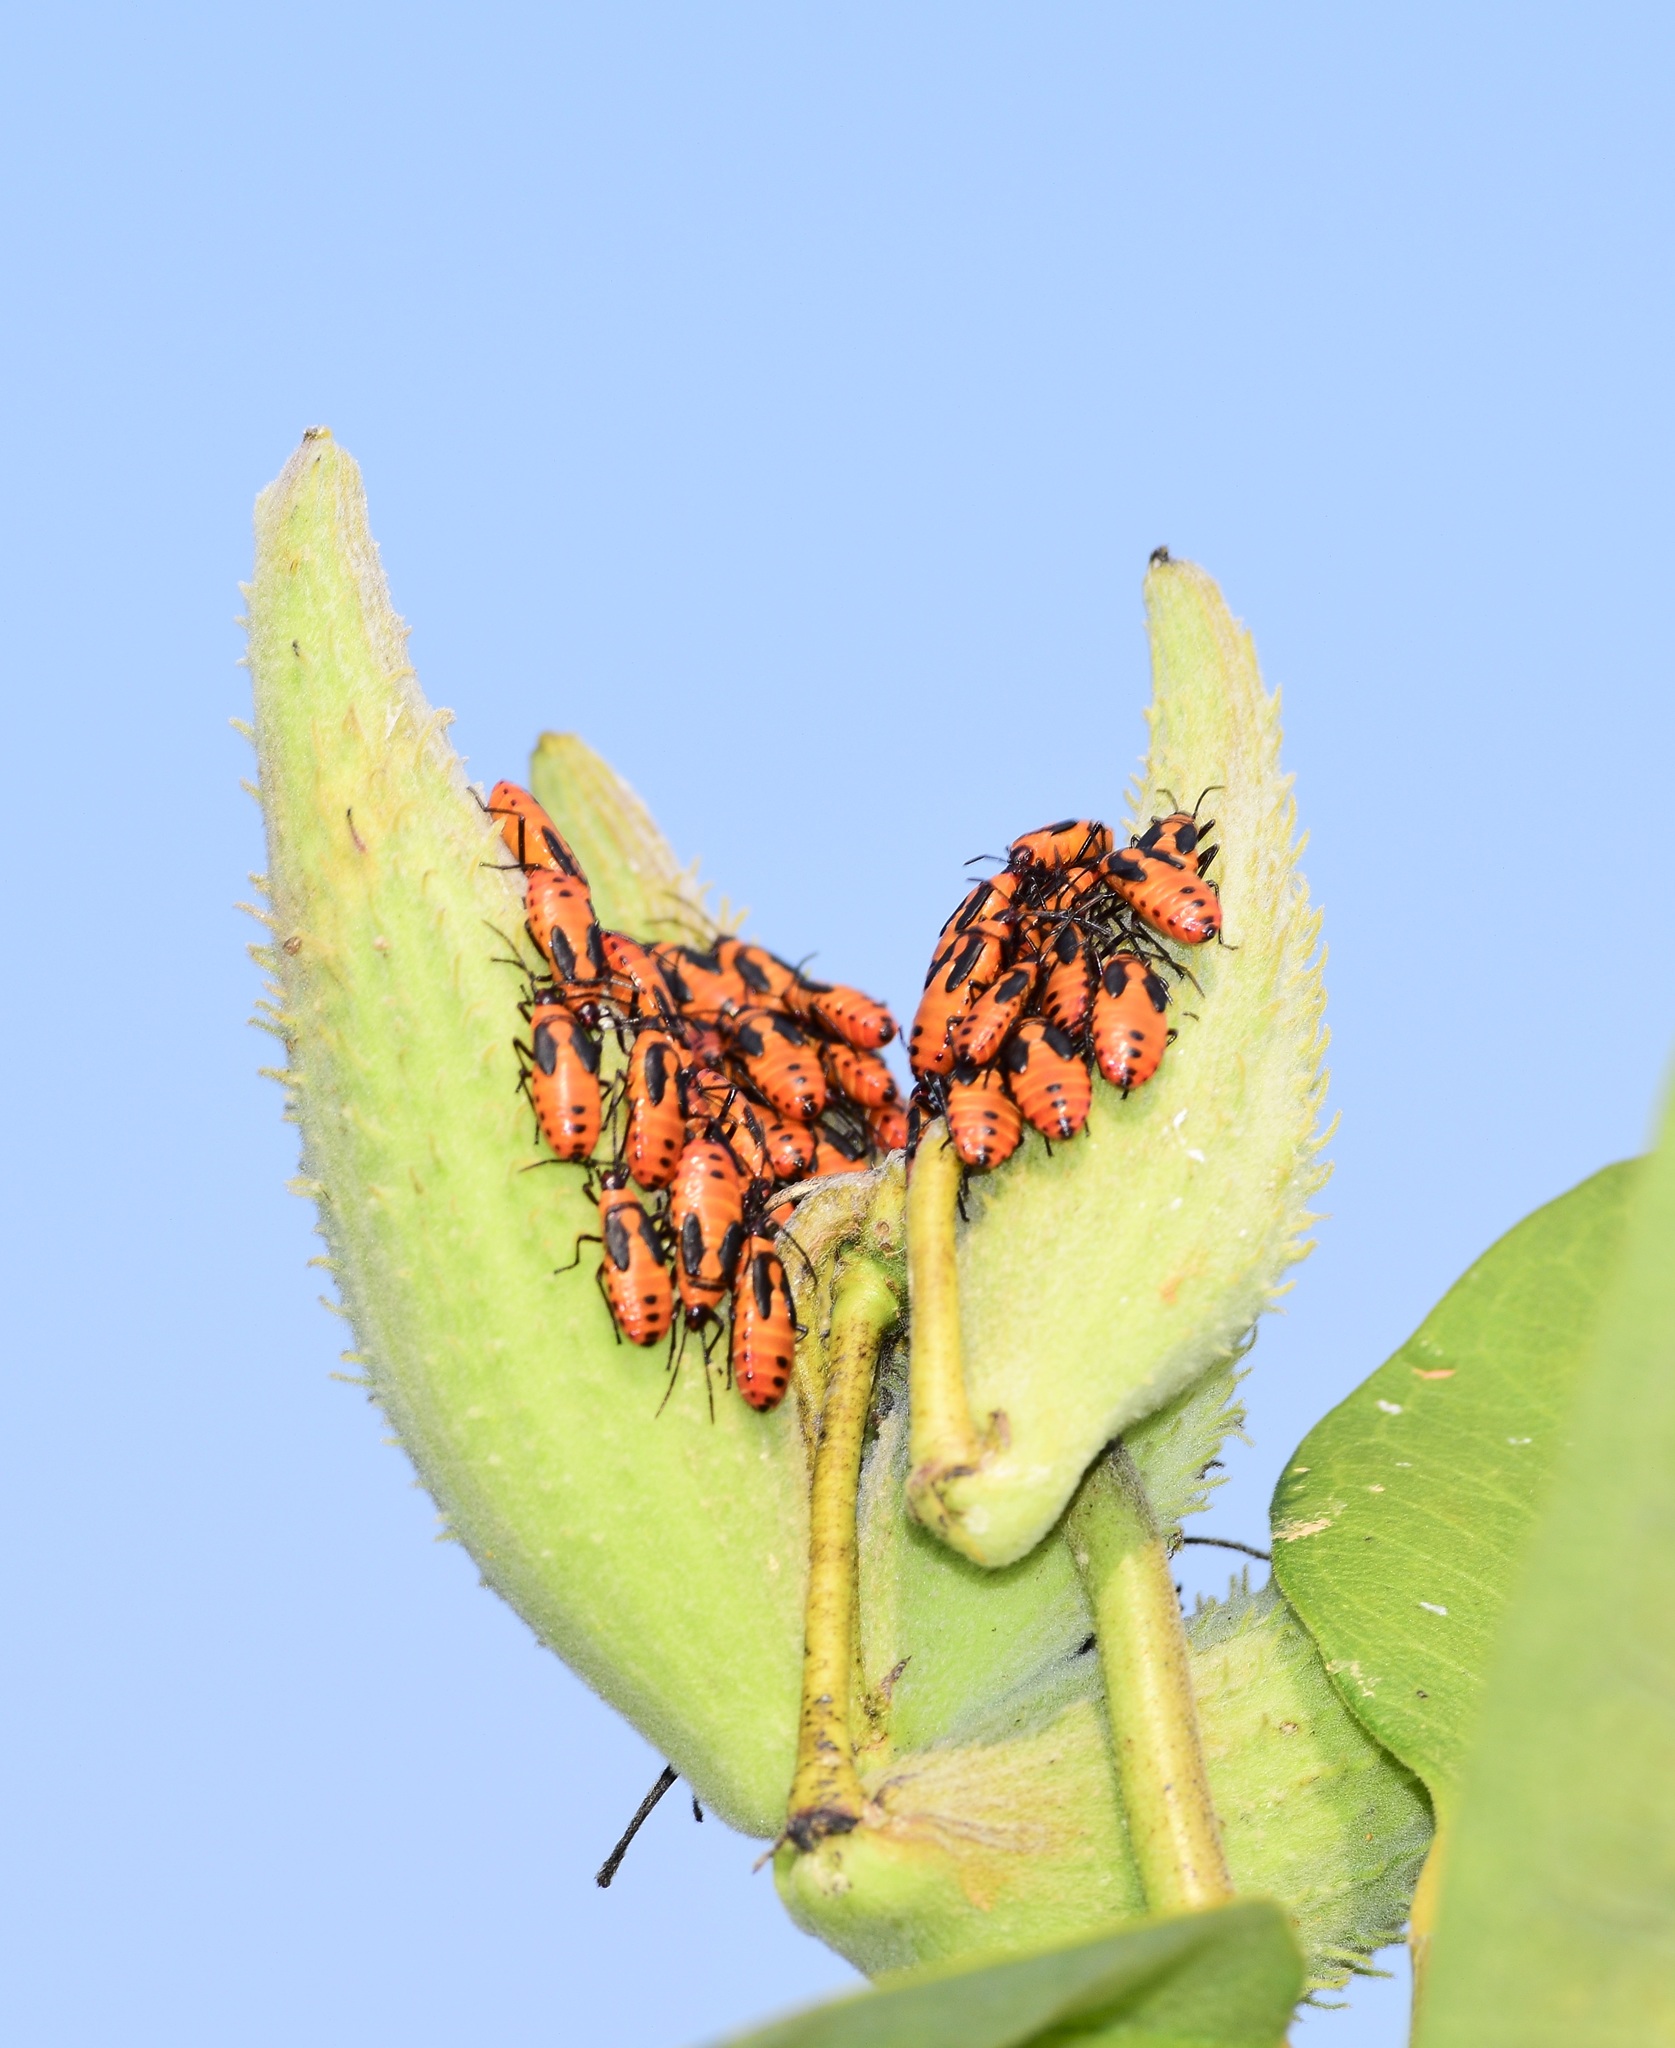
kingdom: Animalia
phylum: Arthropoda
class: Insecta
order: Hemiptera
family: Lygaeidae
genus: Oncopeltus
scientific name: Oncopeltus fasciatus
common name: Large milkweed bug
